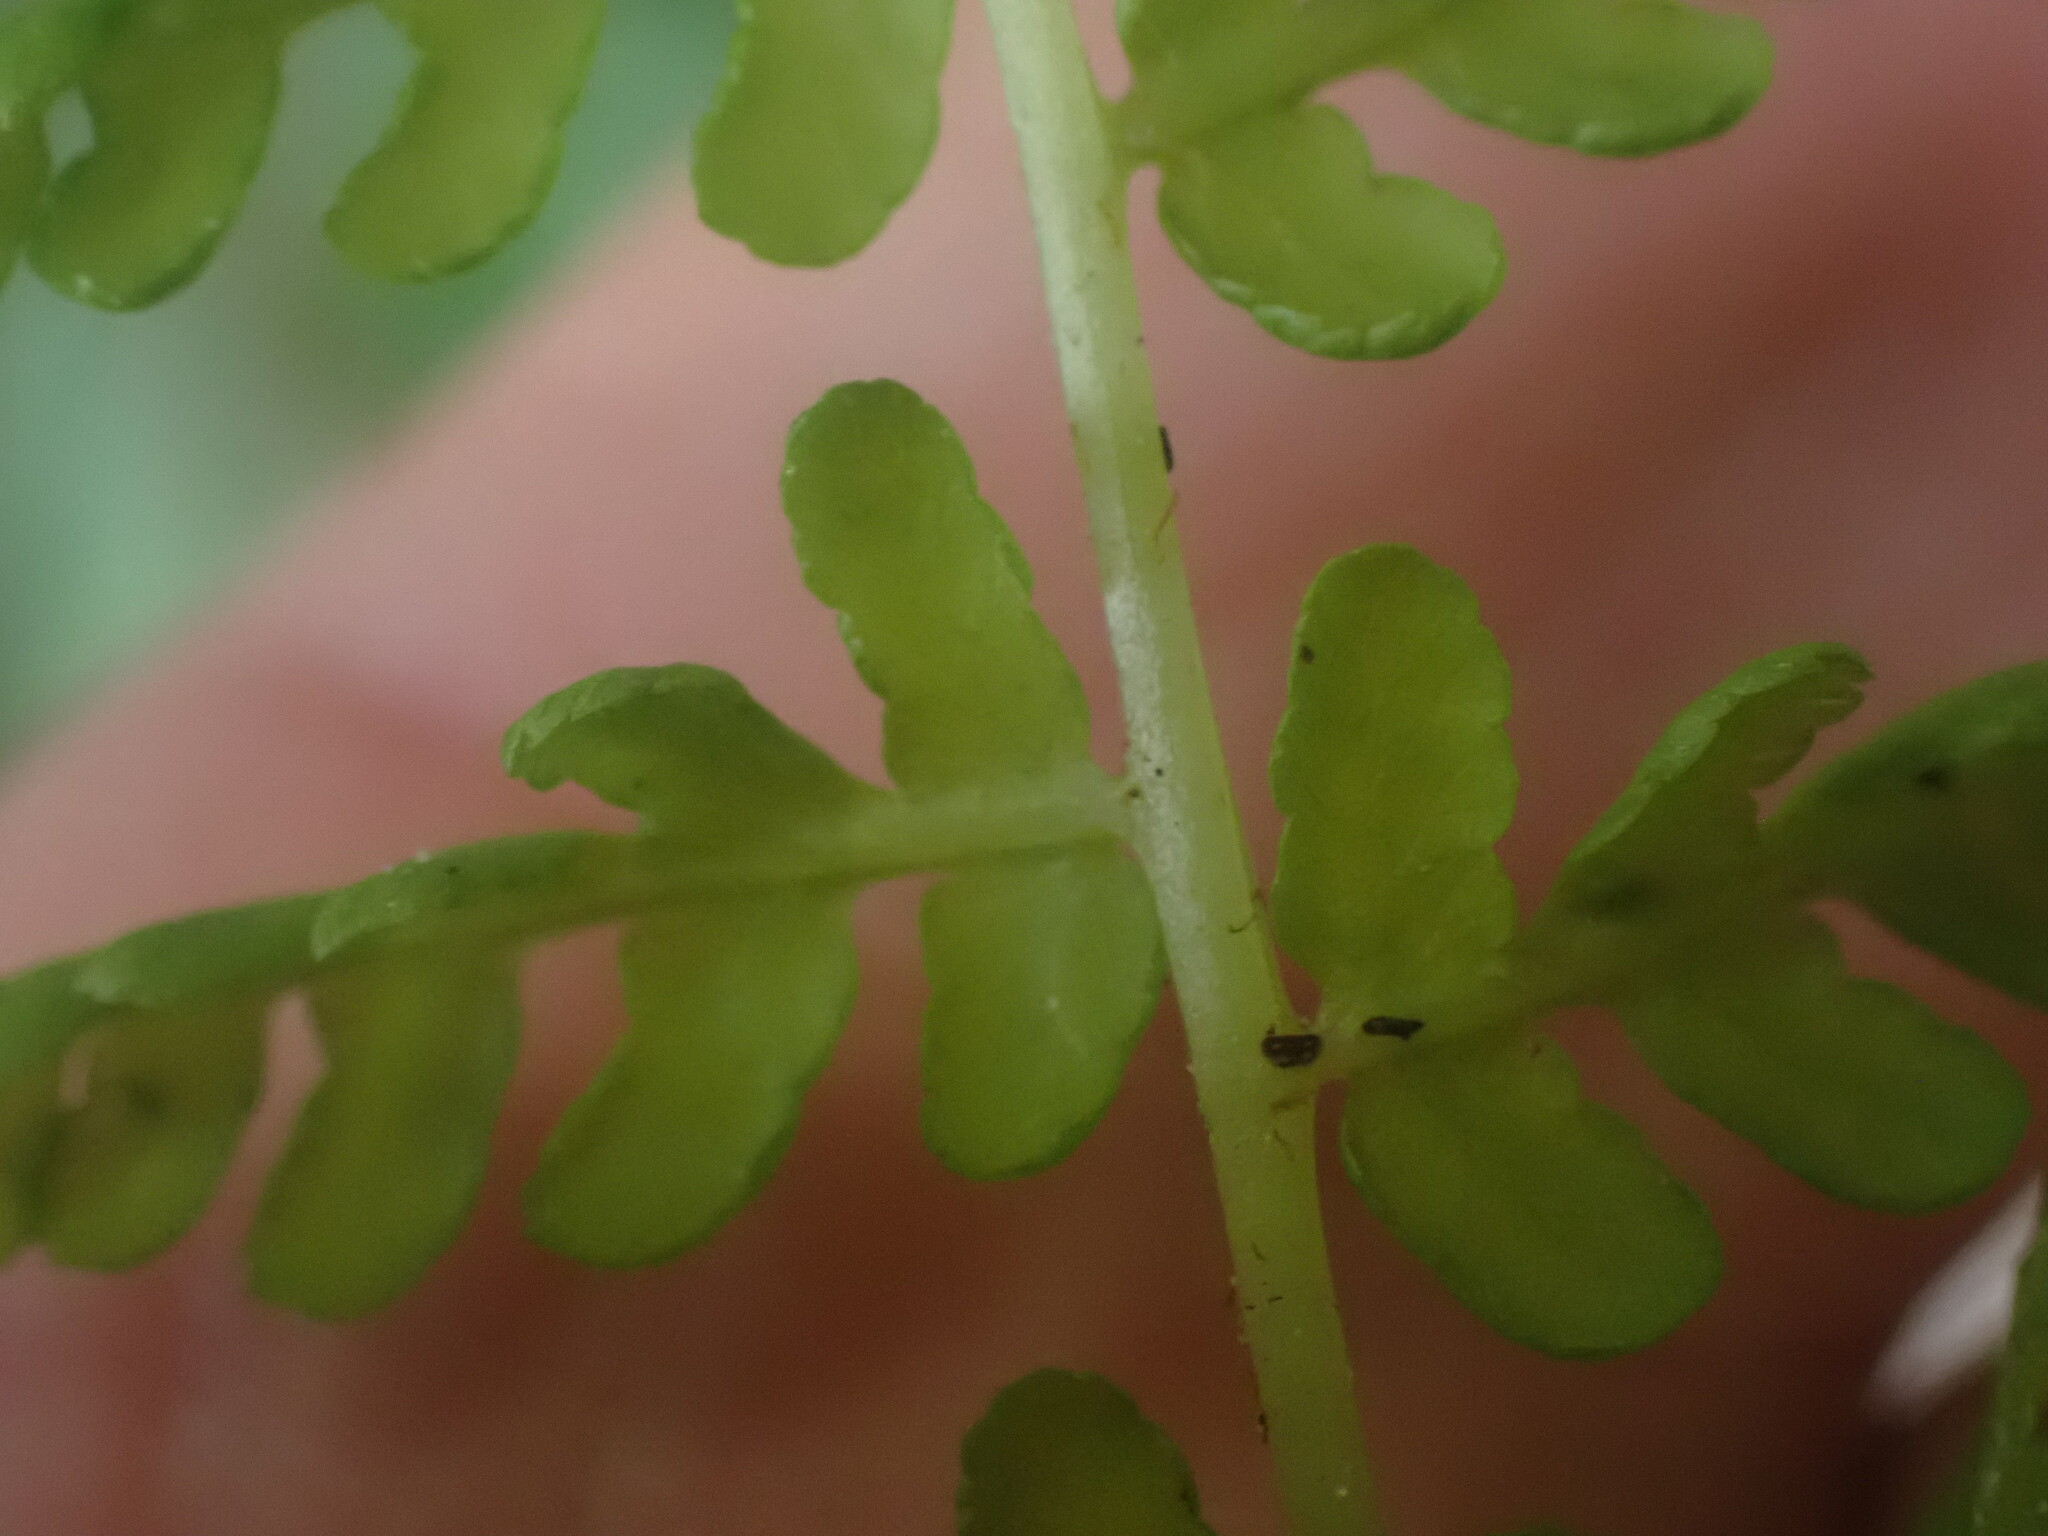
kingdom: Plantae
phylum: Tracheophyta
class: Polypodiopsida
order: Polypodiales
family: Athyriaceae
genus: Athyrium
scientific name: Athyrium filix-femina
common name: Lady fern
